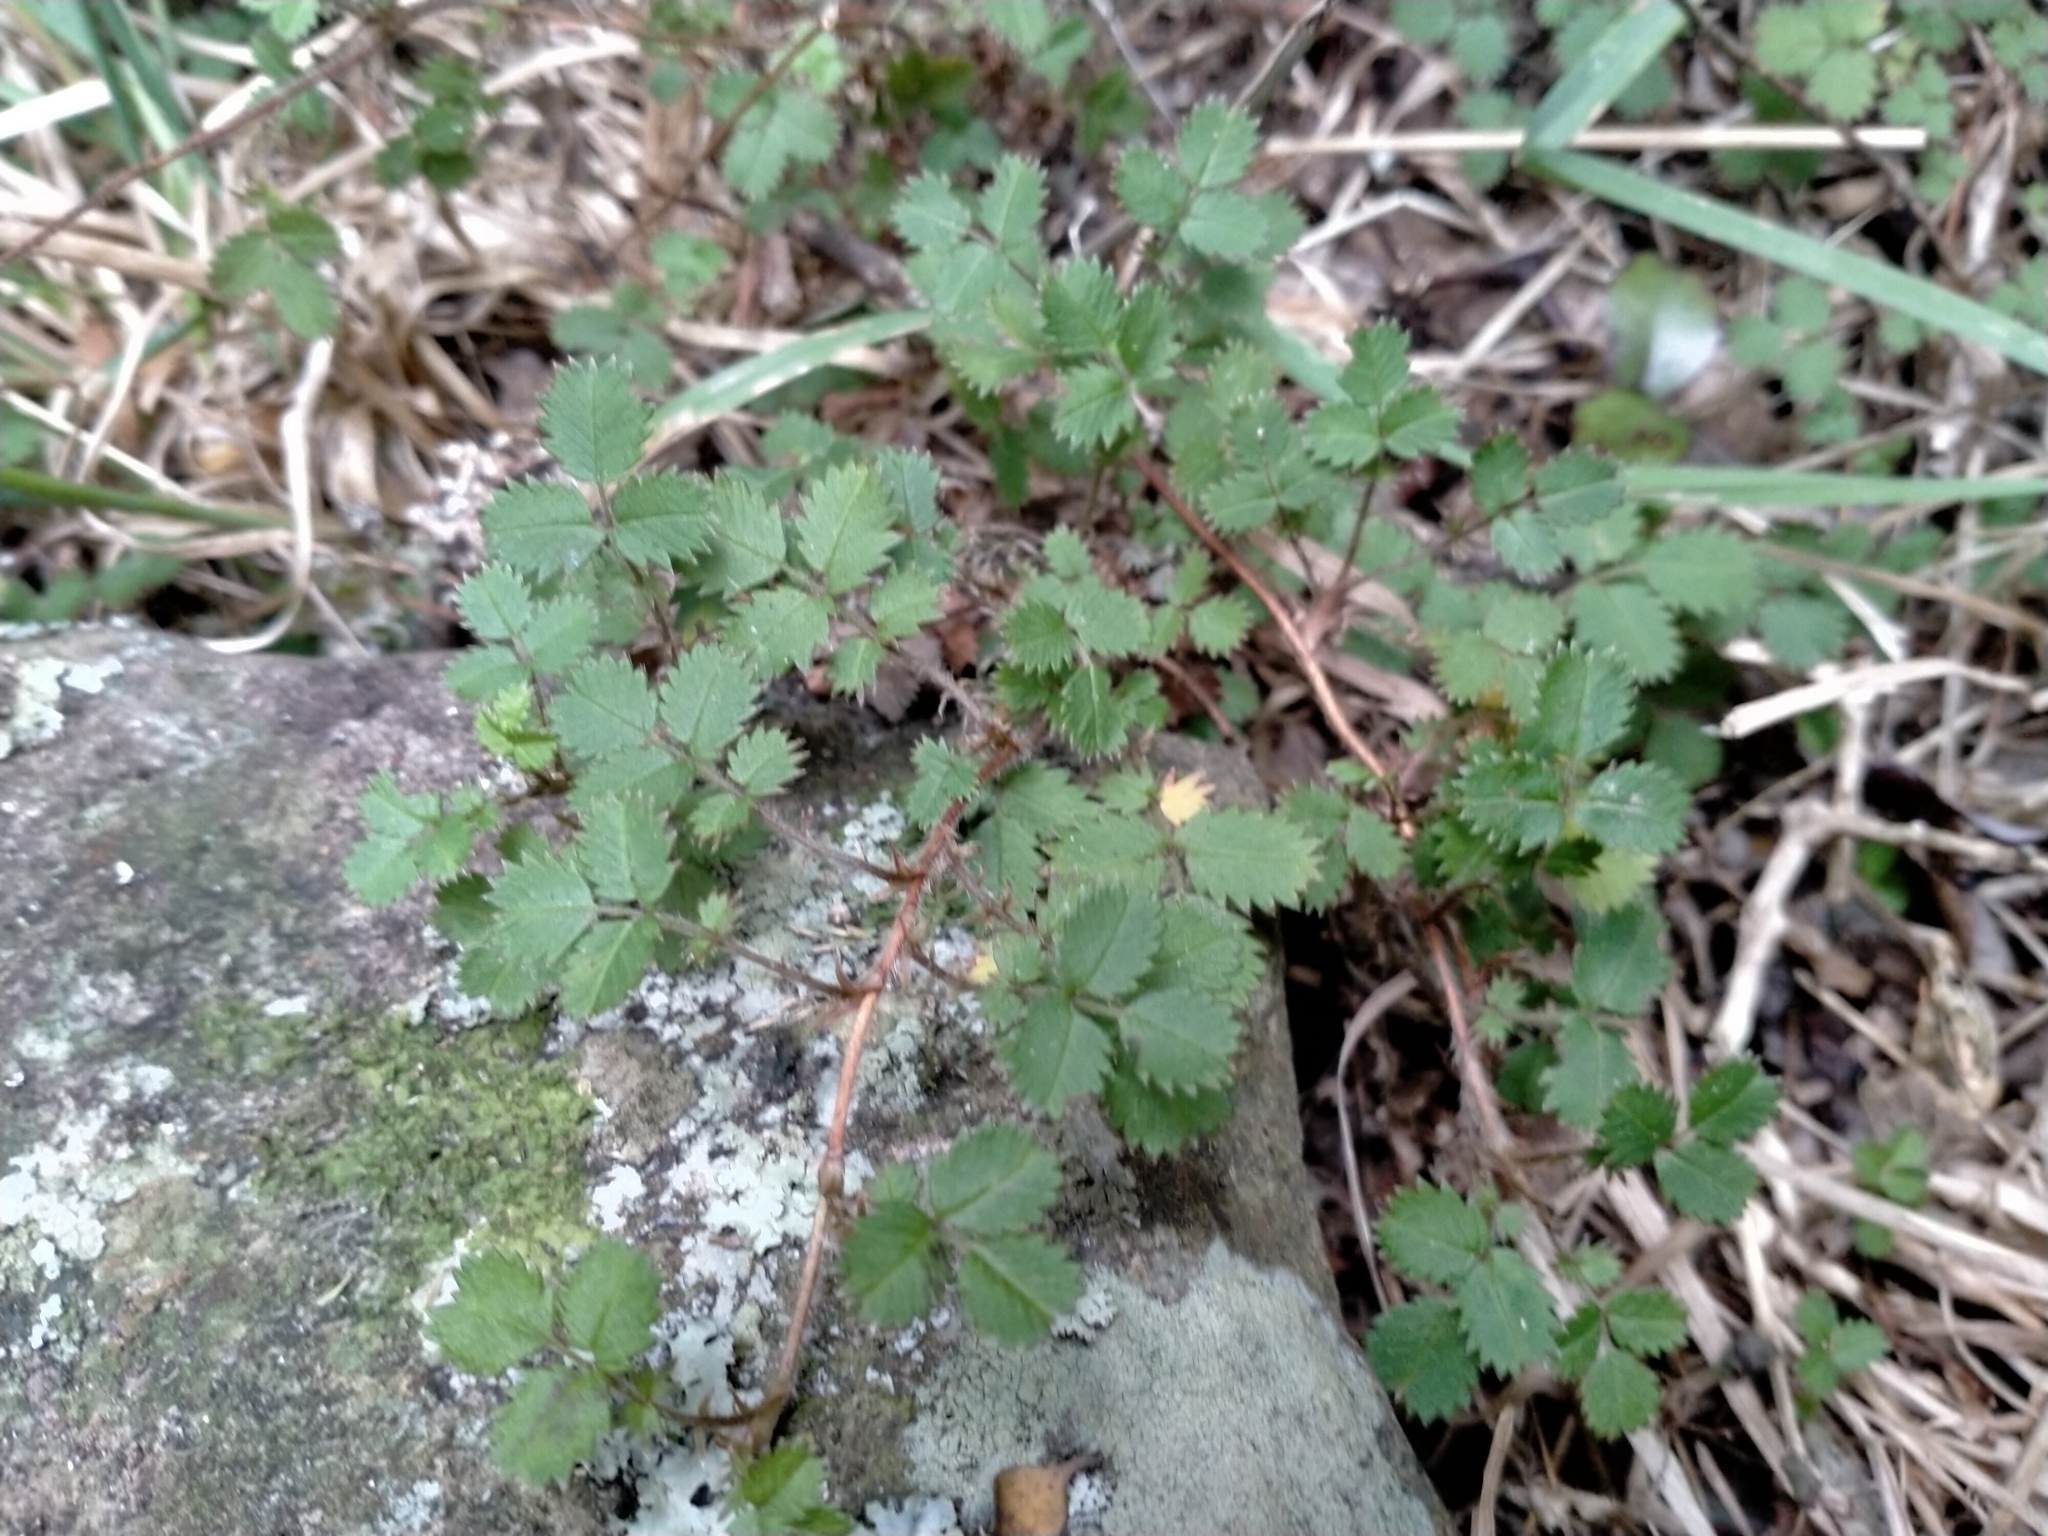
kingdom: Plantae
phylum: Tracheophyta
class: Magnoliopsida
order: Rosales
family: Rosaceae
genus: Acaena
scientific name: Acaena juvenca
